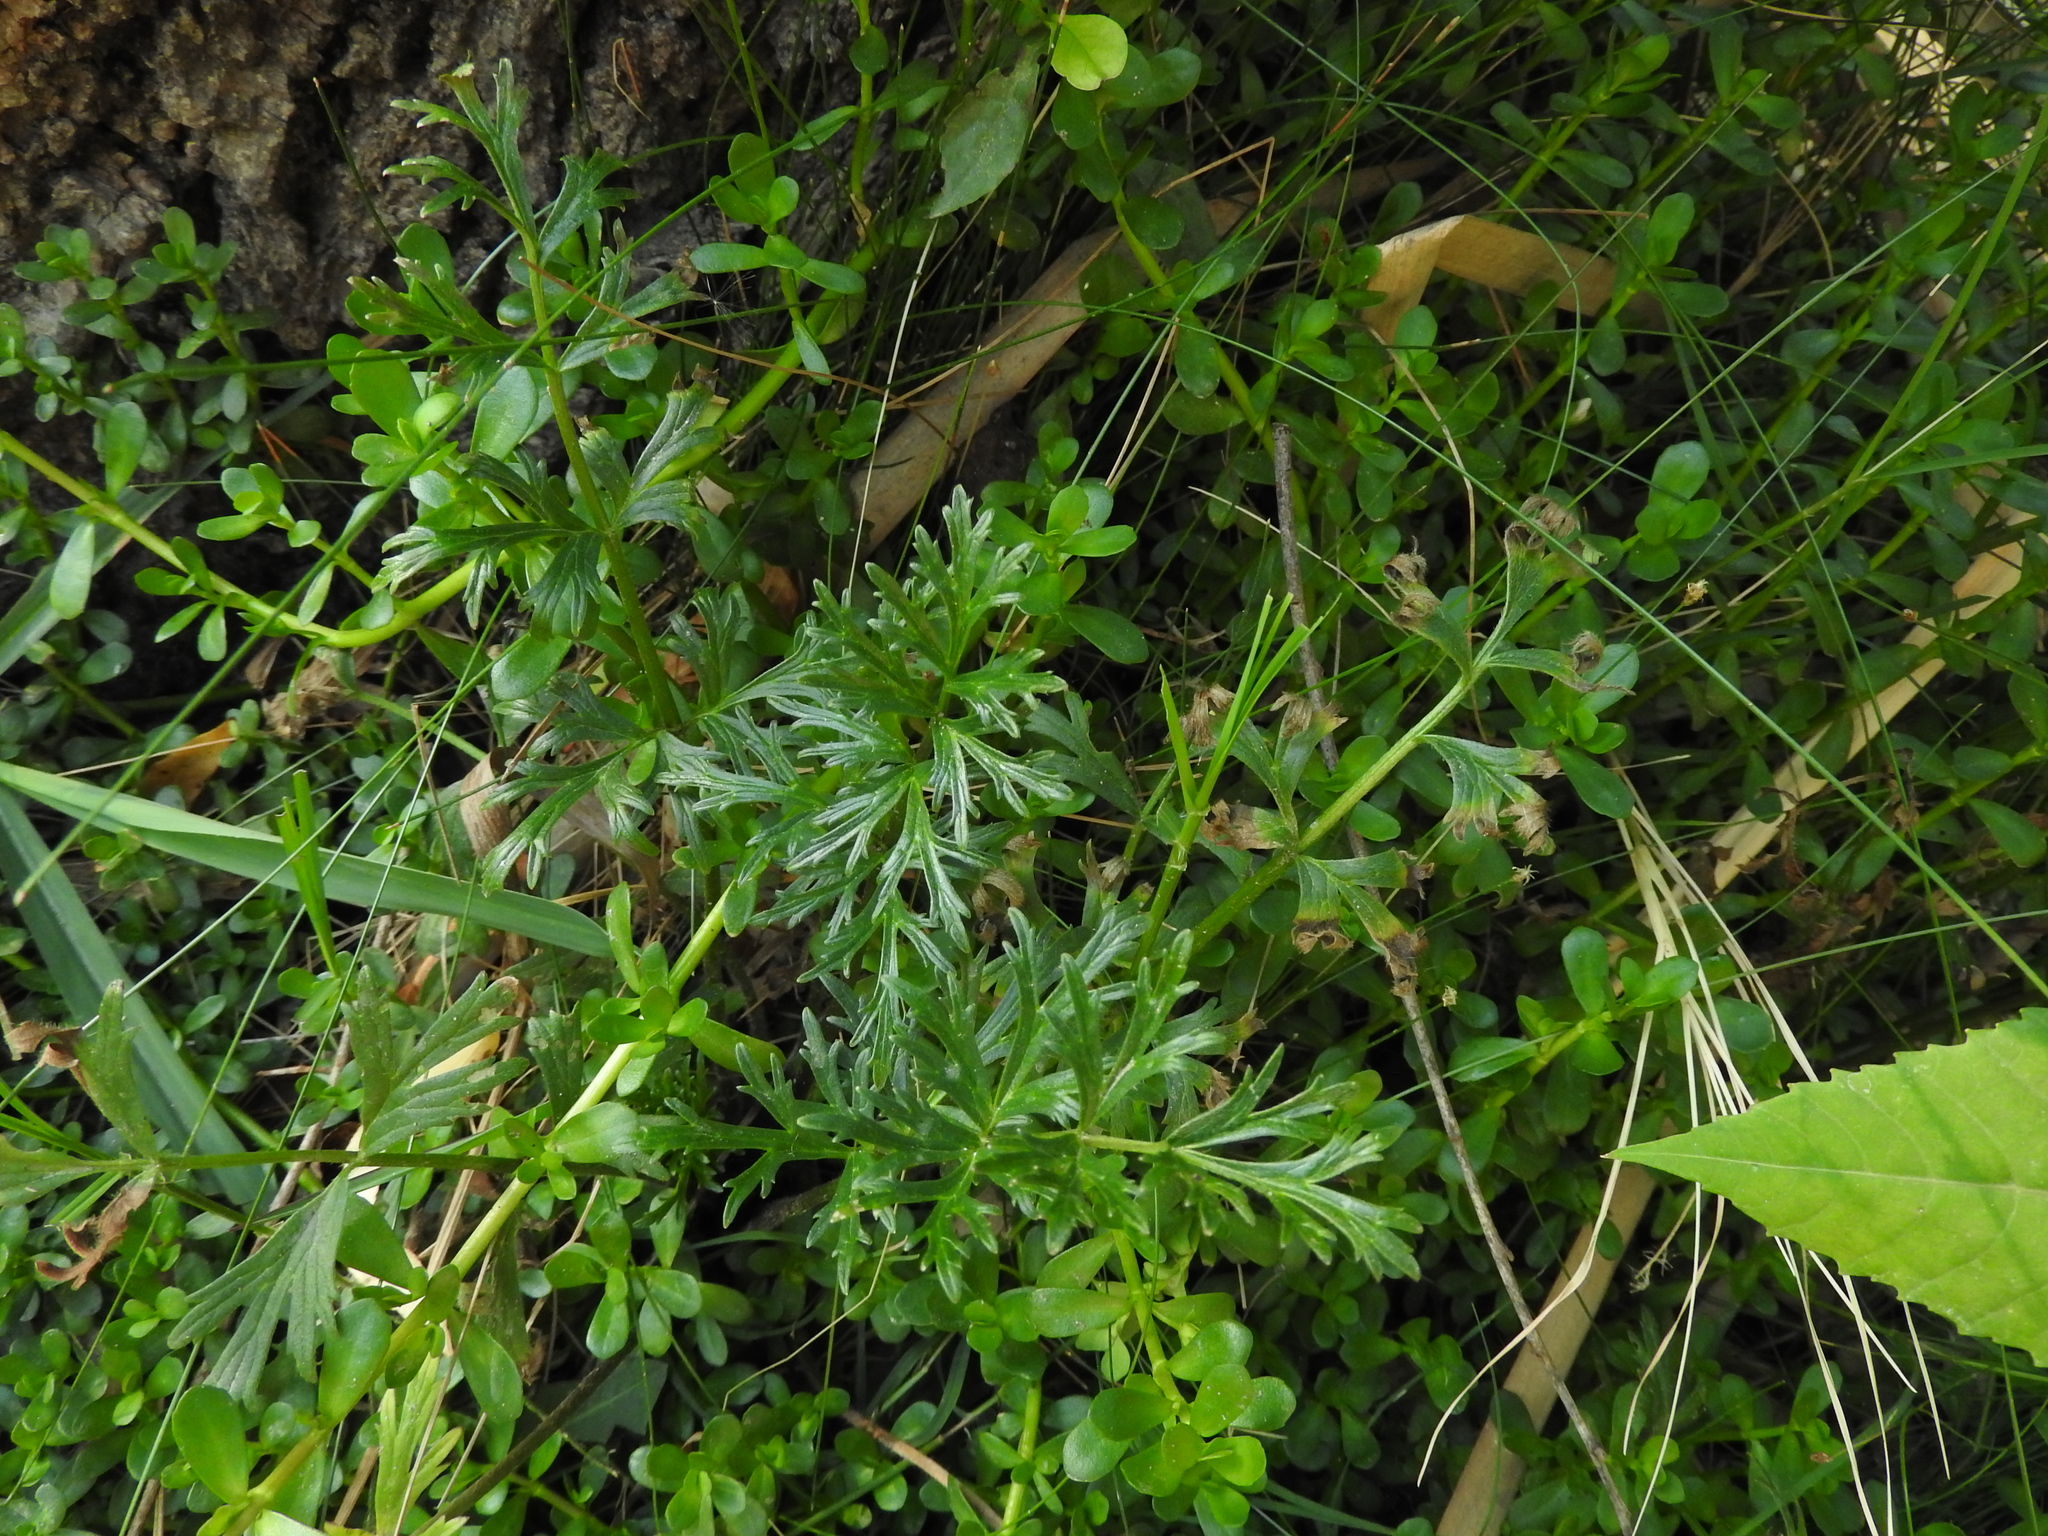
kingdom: Plantae
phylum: Tracheophyta
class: Magnoliopsida
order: Lamiales
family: Verbenaceae
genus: Verbena
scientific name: Verbena officinalis
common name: Vervain
